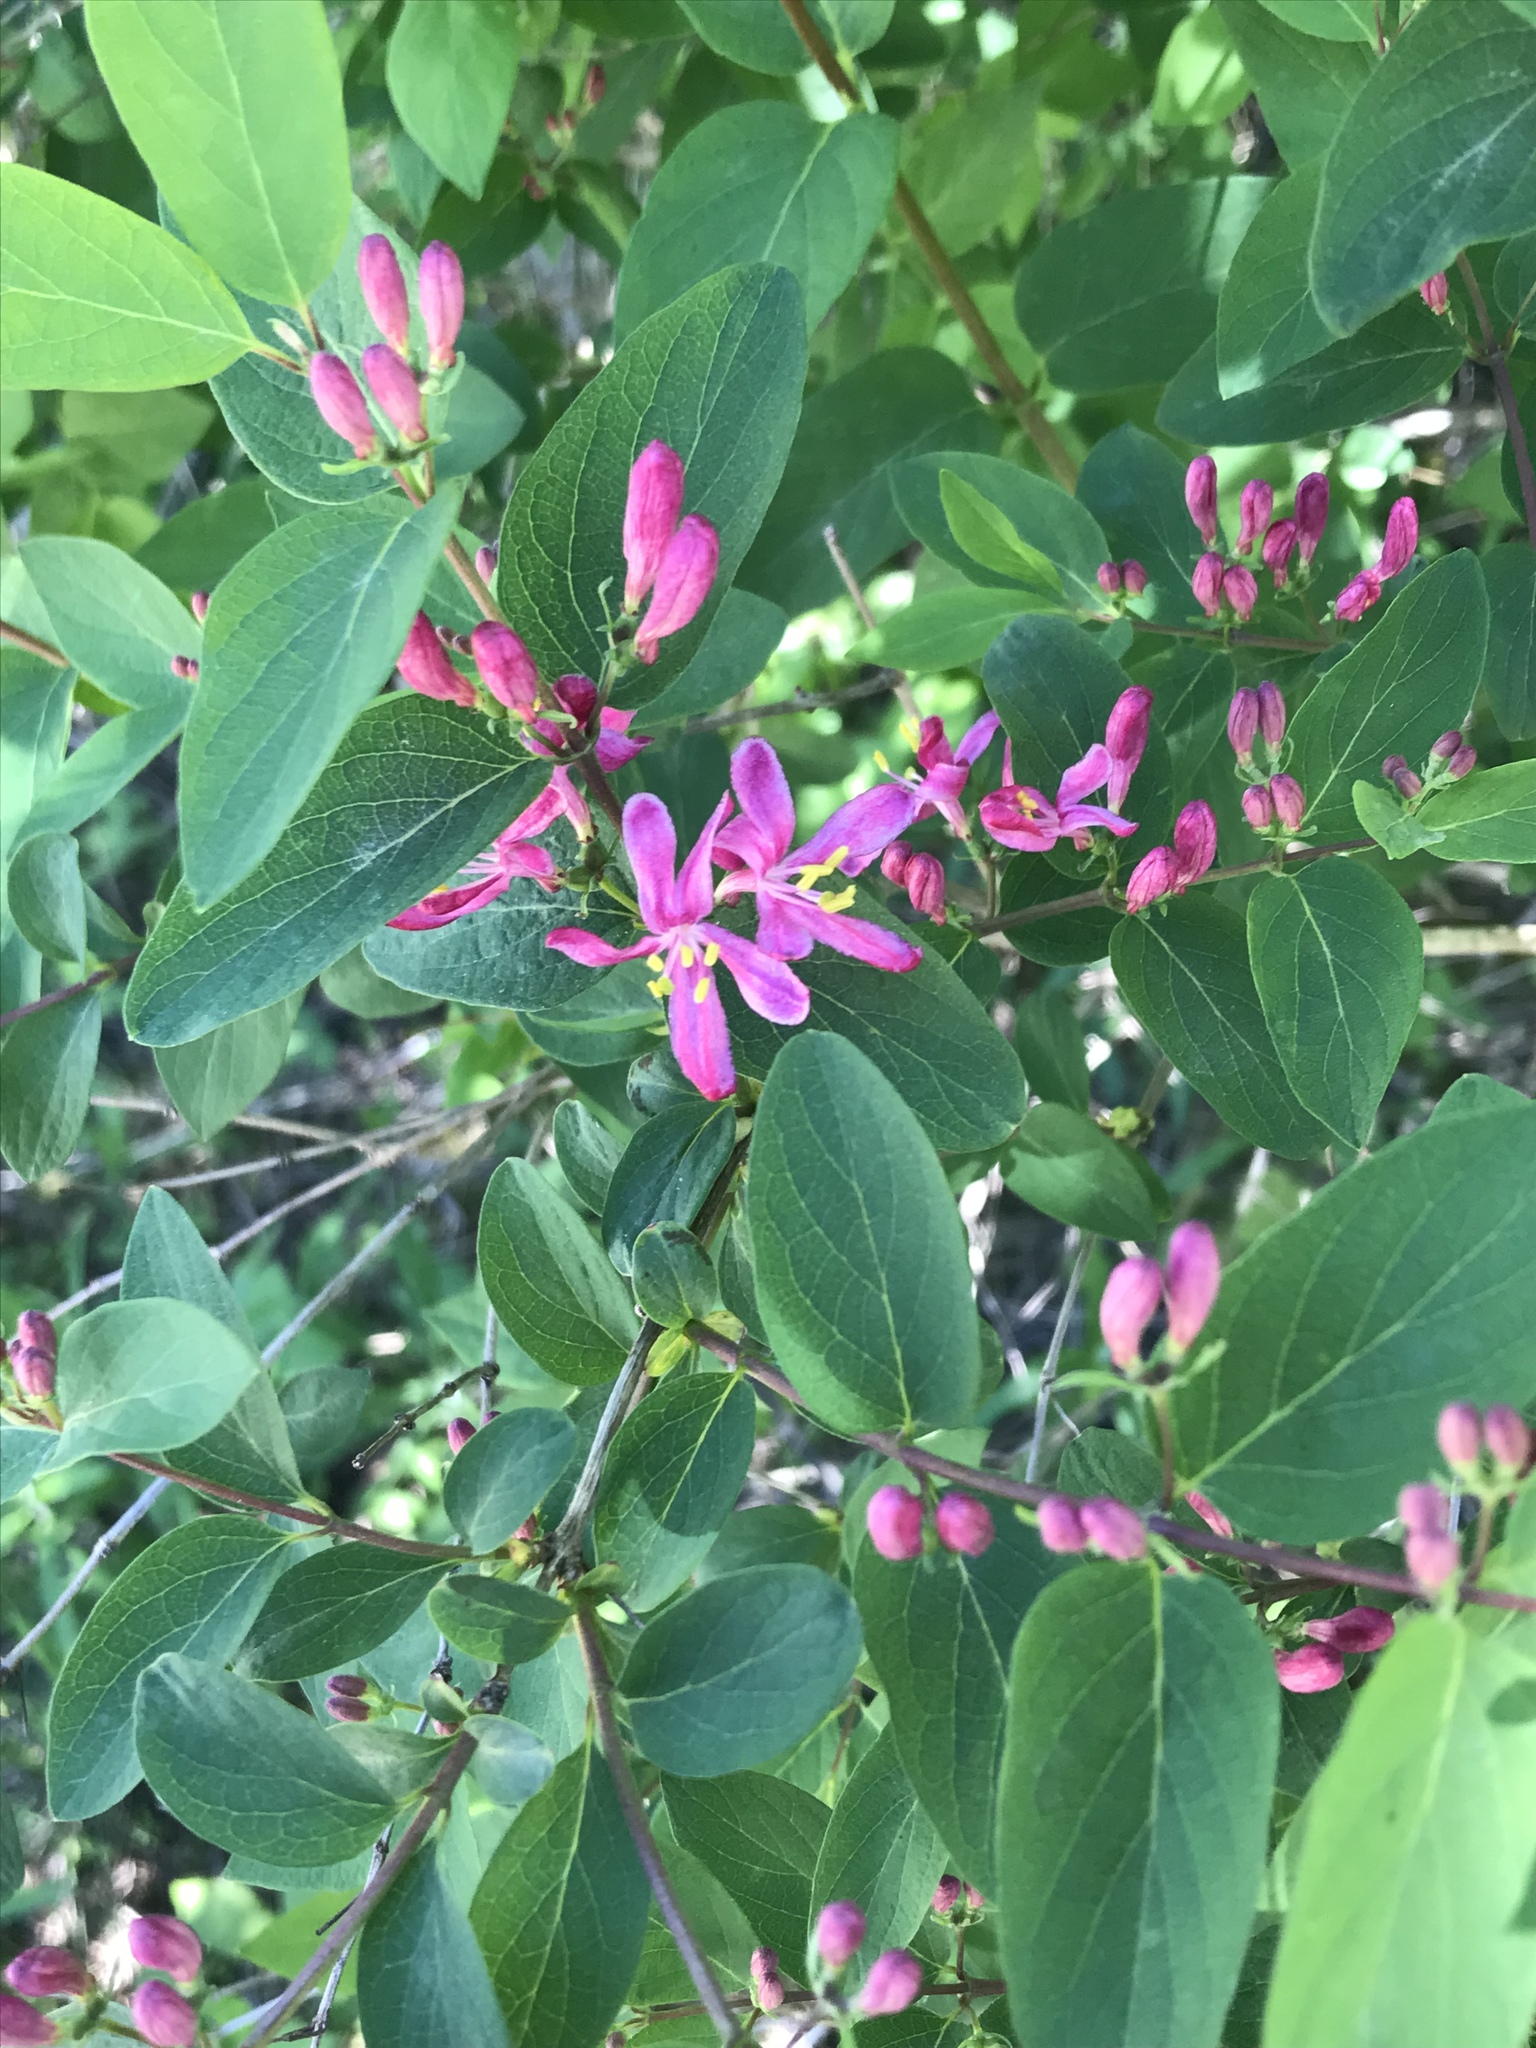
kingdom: Plantae
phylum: Tracheophyta
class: Magnoliopsida
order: Dipsacales
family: Caprifoliaceae
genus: Lonicera
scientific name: Lonicera tatarica
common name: Tatarian honeysuckle
